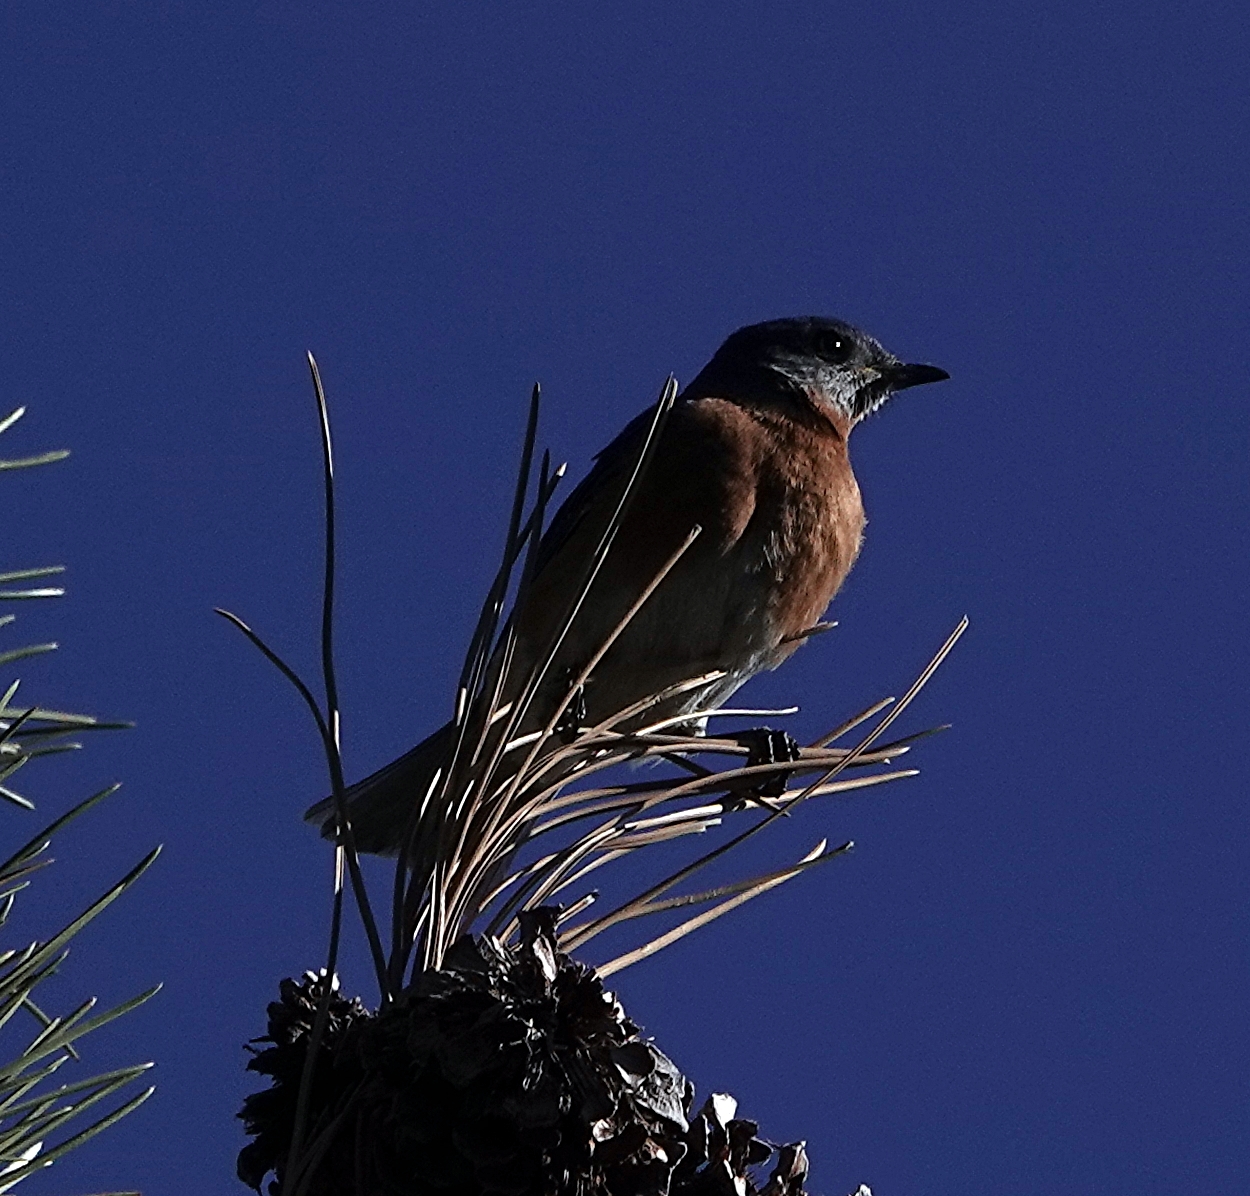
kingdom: Animalia
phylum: Chordata
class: Aves
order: Passeriformes
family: Turdidae
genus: Sialia
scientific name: Sialia sialis
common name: Eastern bluebird
